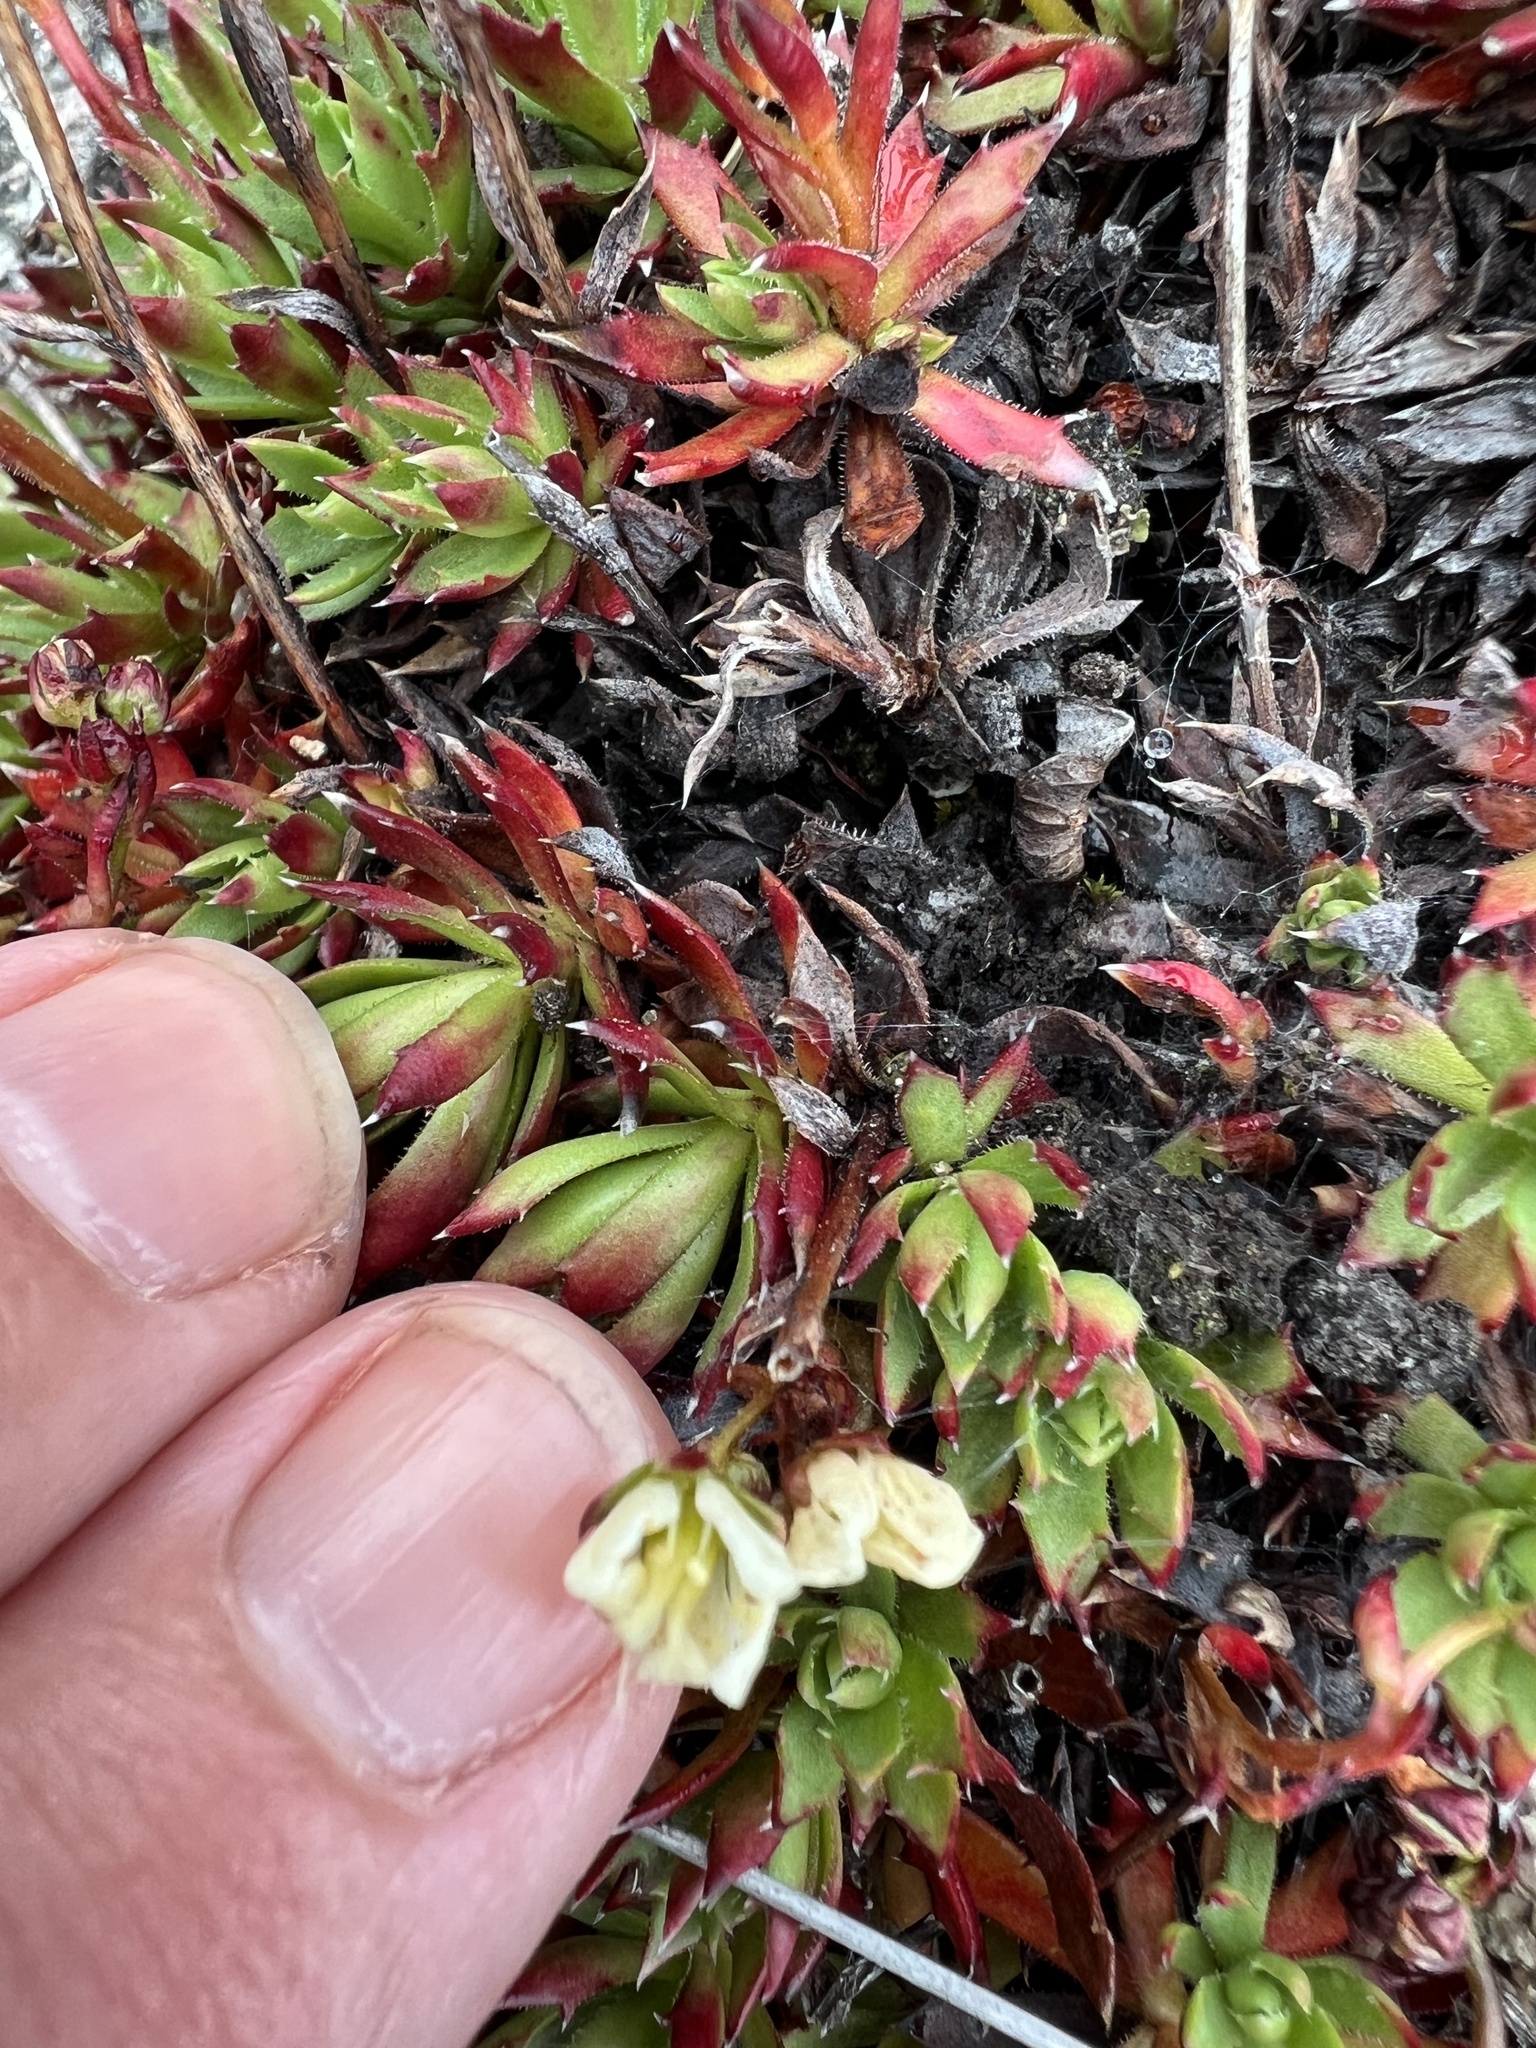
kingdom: Plantae
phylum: Tracheophyta
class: Magnoliopsida
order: Saxifragales
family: Saxifragaceae
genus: Saxifraga
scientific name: Saxifraga tricuspidata
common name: Prickly saxifrage
